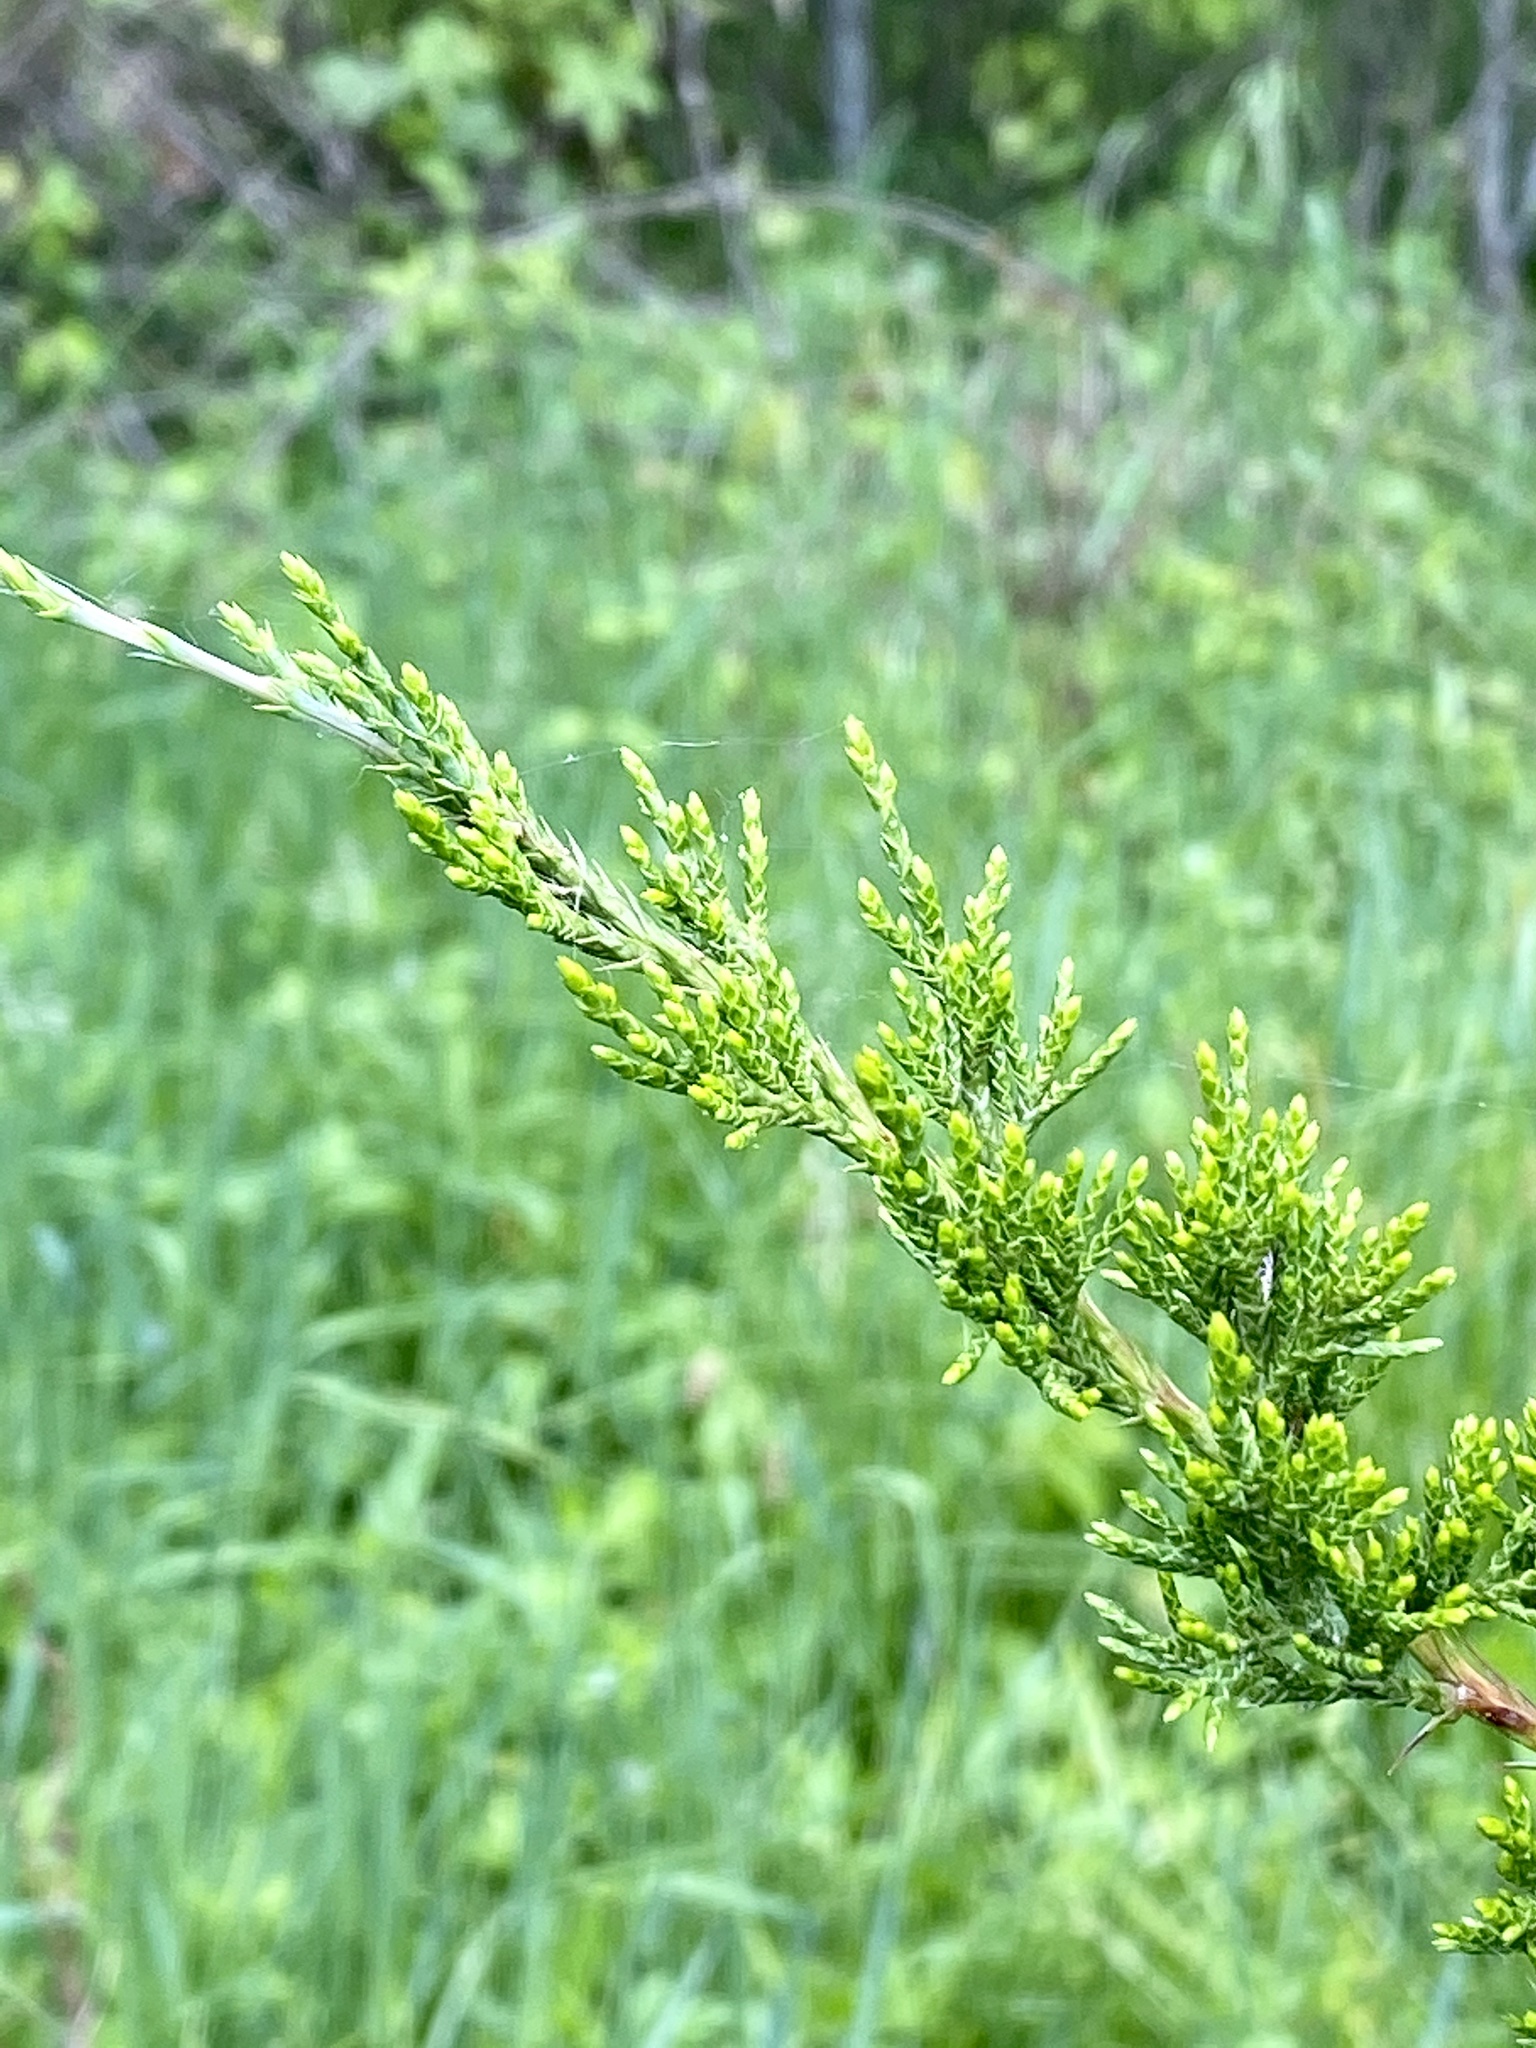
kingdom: Plantae
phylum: Tracheophyta
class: Pinopsida
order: Pinales
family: Cupressaceae
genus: Juniperus
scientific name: Juniperus virginiana
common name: Red juniper
